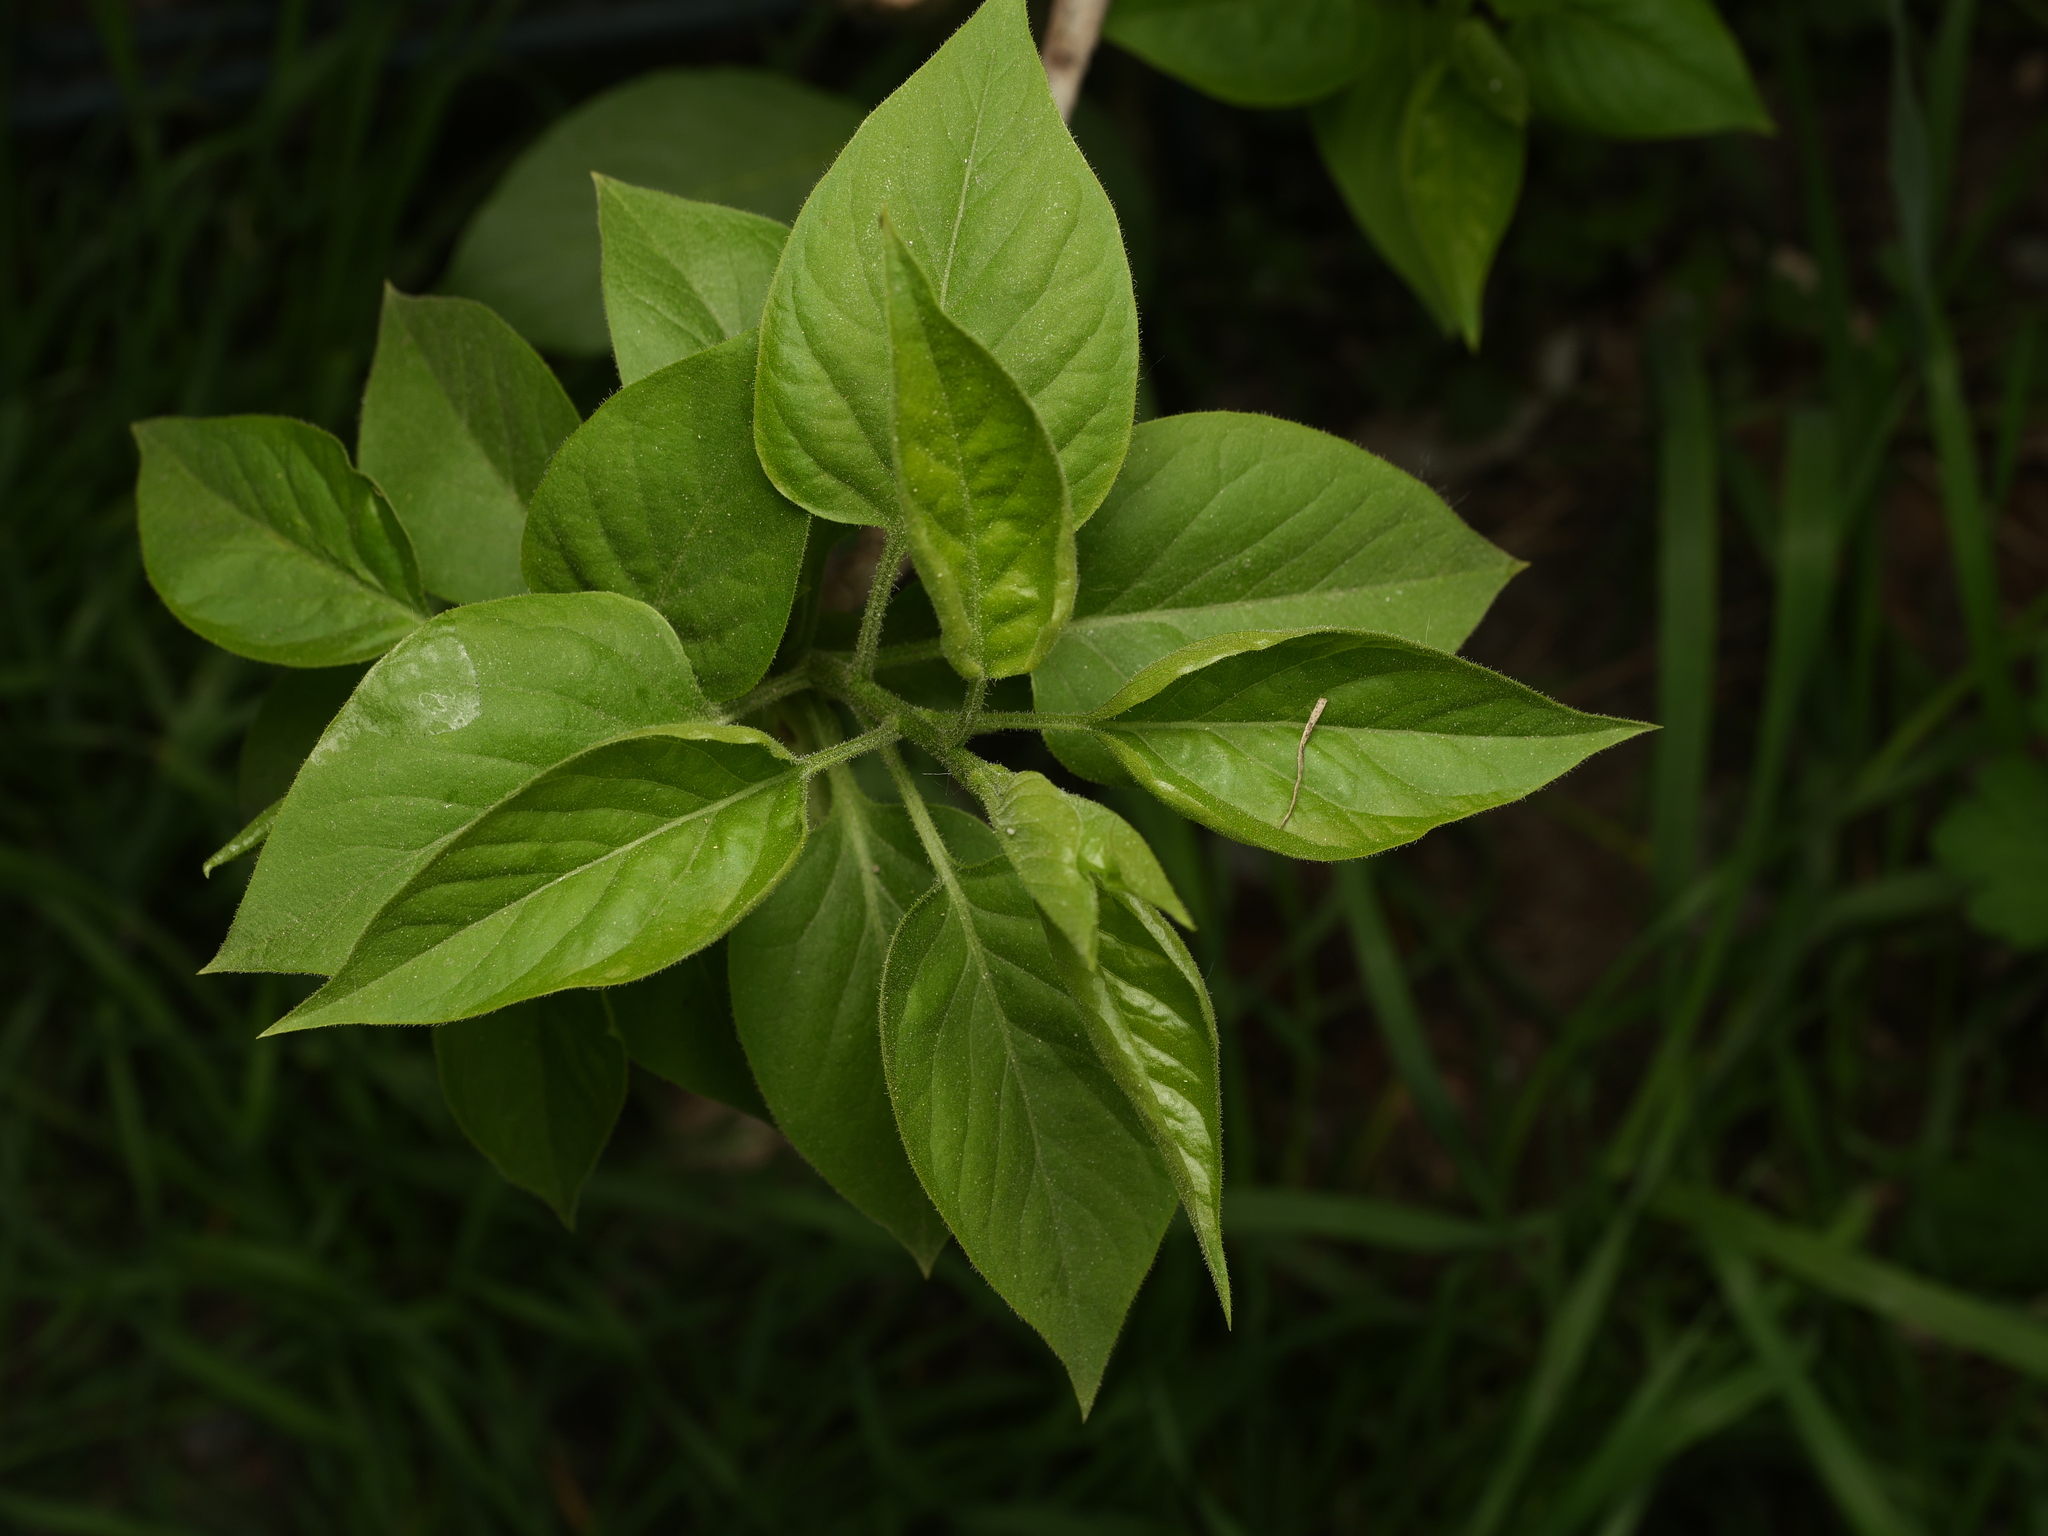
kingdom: Plantae
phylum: Tracheophyta
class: Magnoliopsida
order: Lamiales
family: Oleaceae
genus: Syringa
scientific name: Syringa vulgaris
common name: Common lilac
